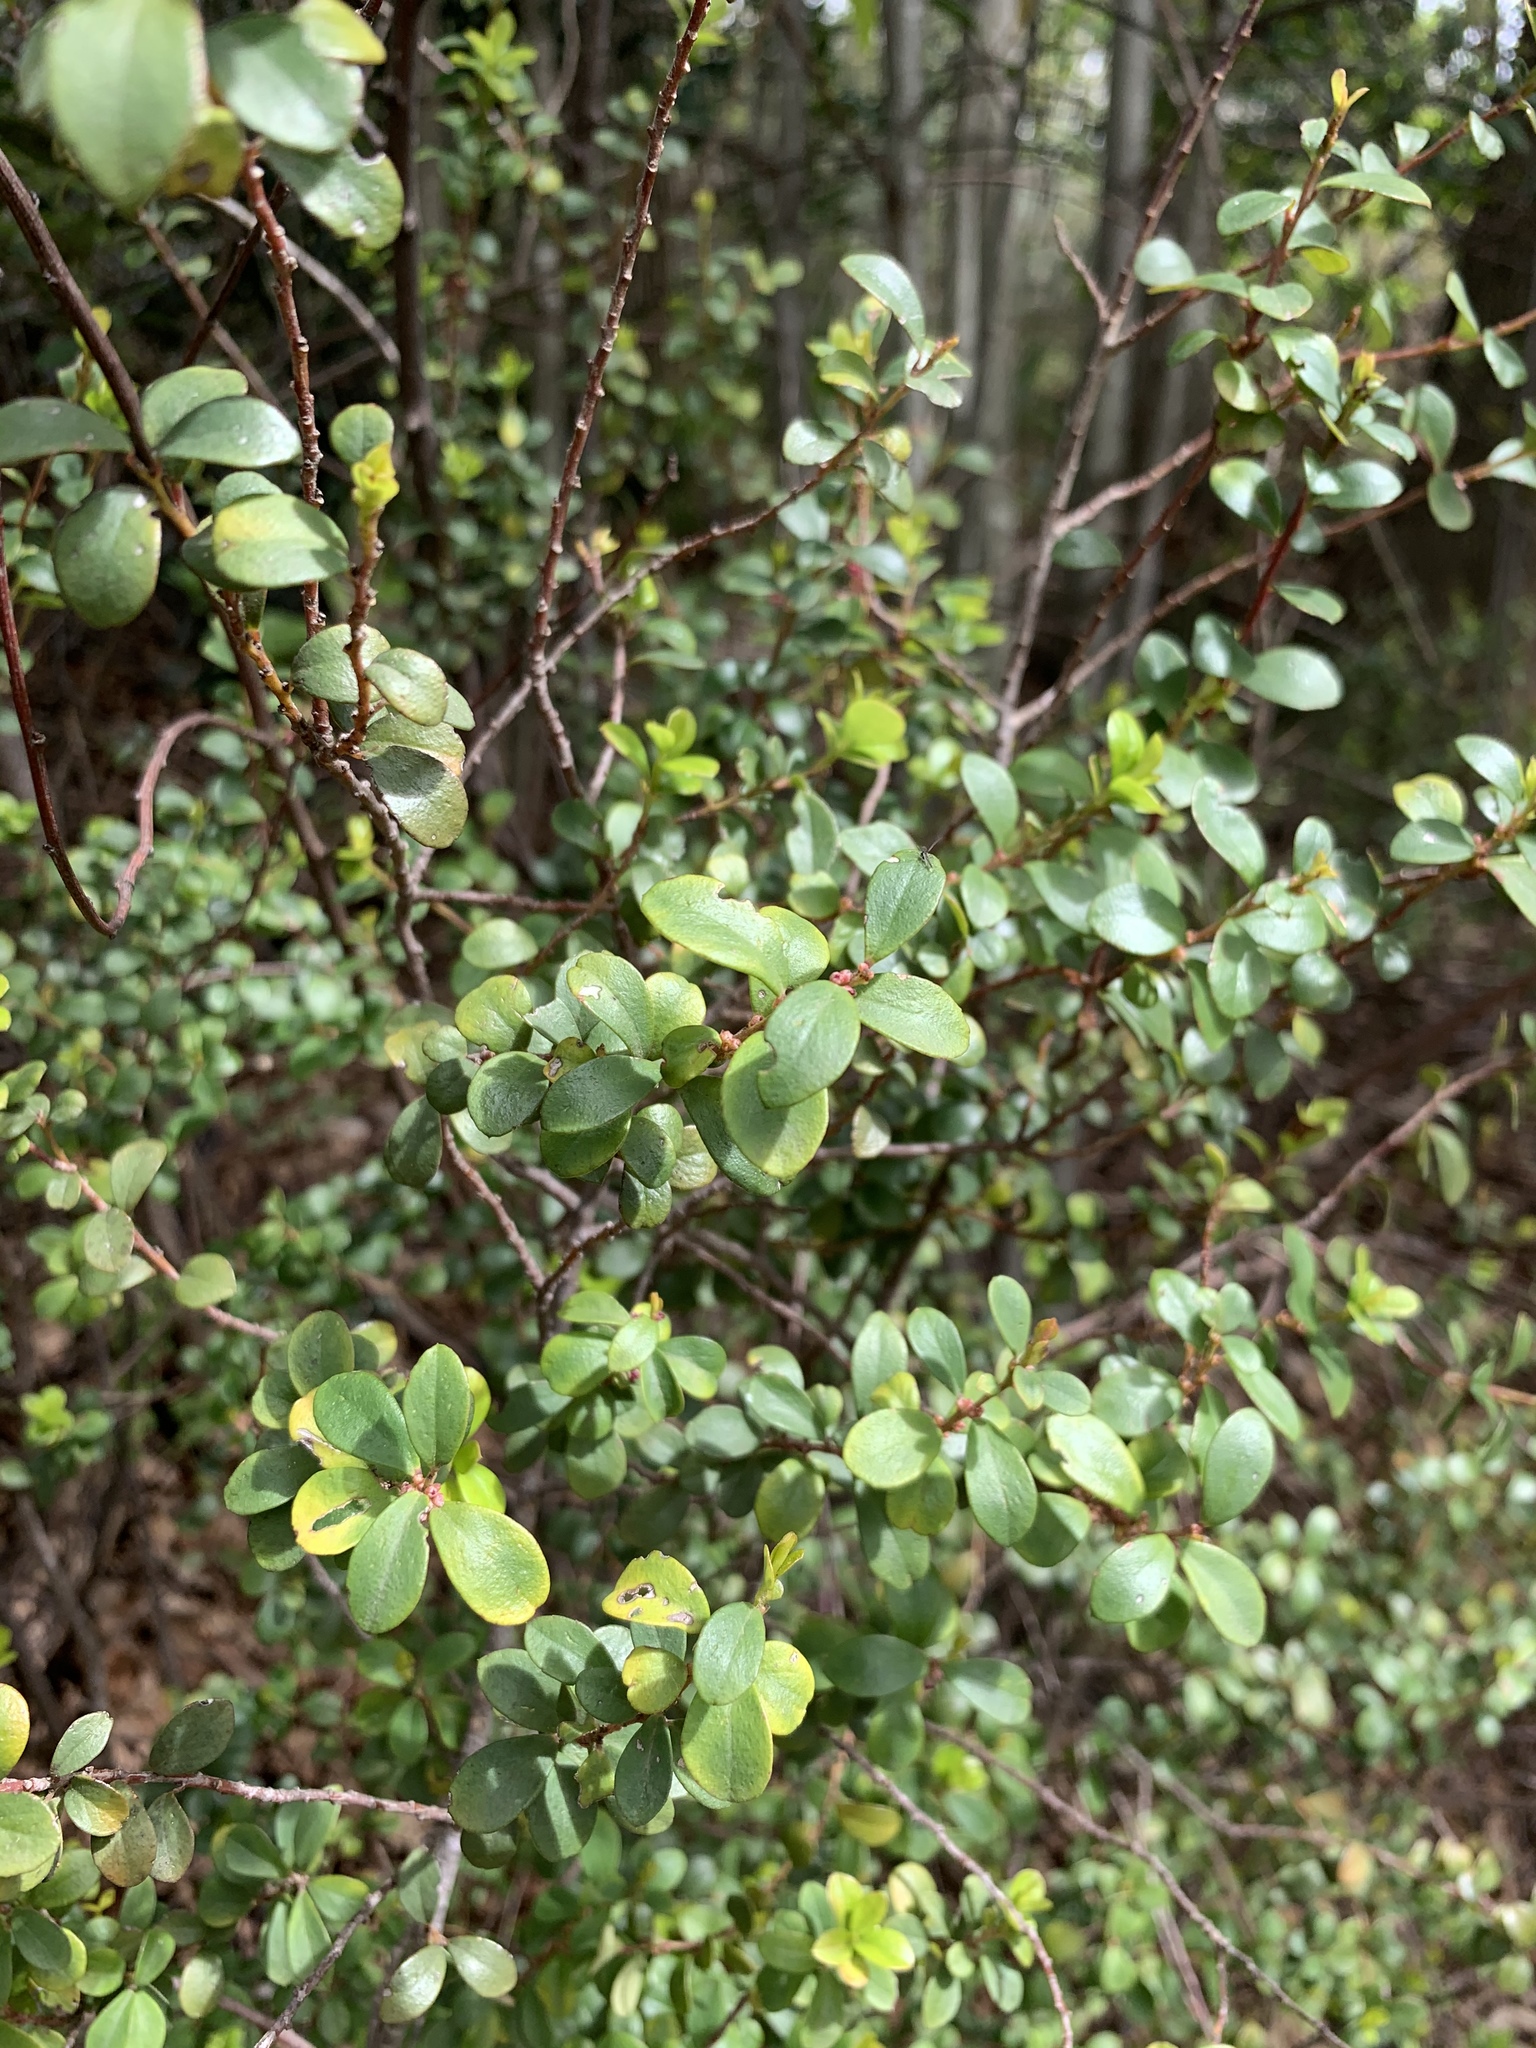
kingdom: Plantae
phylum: Tracheophyta
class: Magnoliopsida
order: Ericales
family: Primulaceae
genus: Myrsine
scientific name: Myrsine africana
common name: African-boxwood
